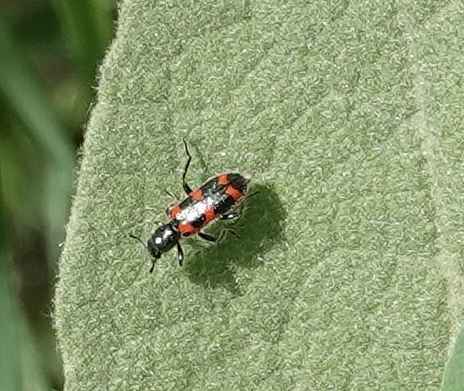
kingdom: Animalia
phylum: Arthropoda
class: Insecta
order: Coleoptera
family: Cleridae
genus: Trichodes
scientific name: Trichodes nutalli
